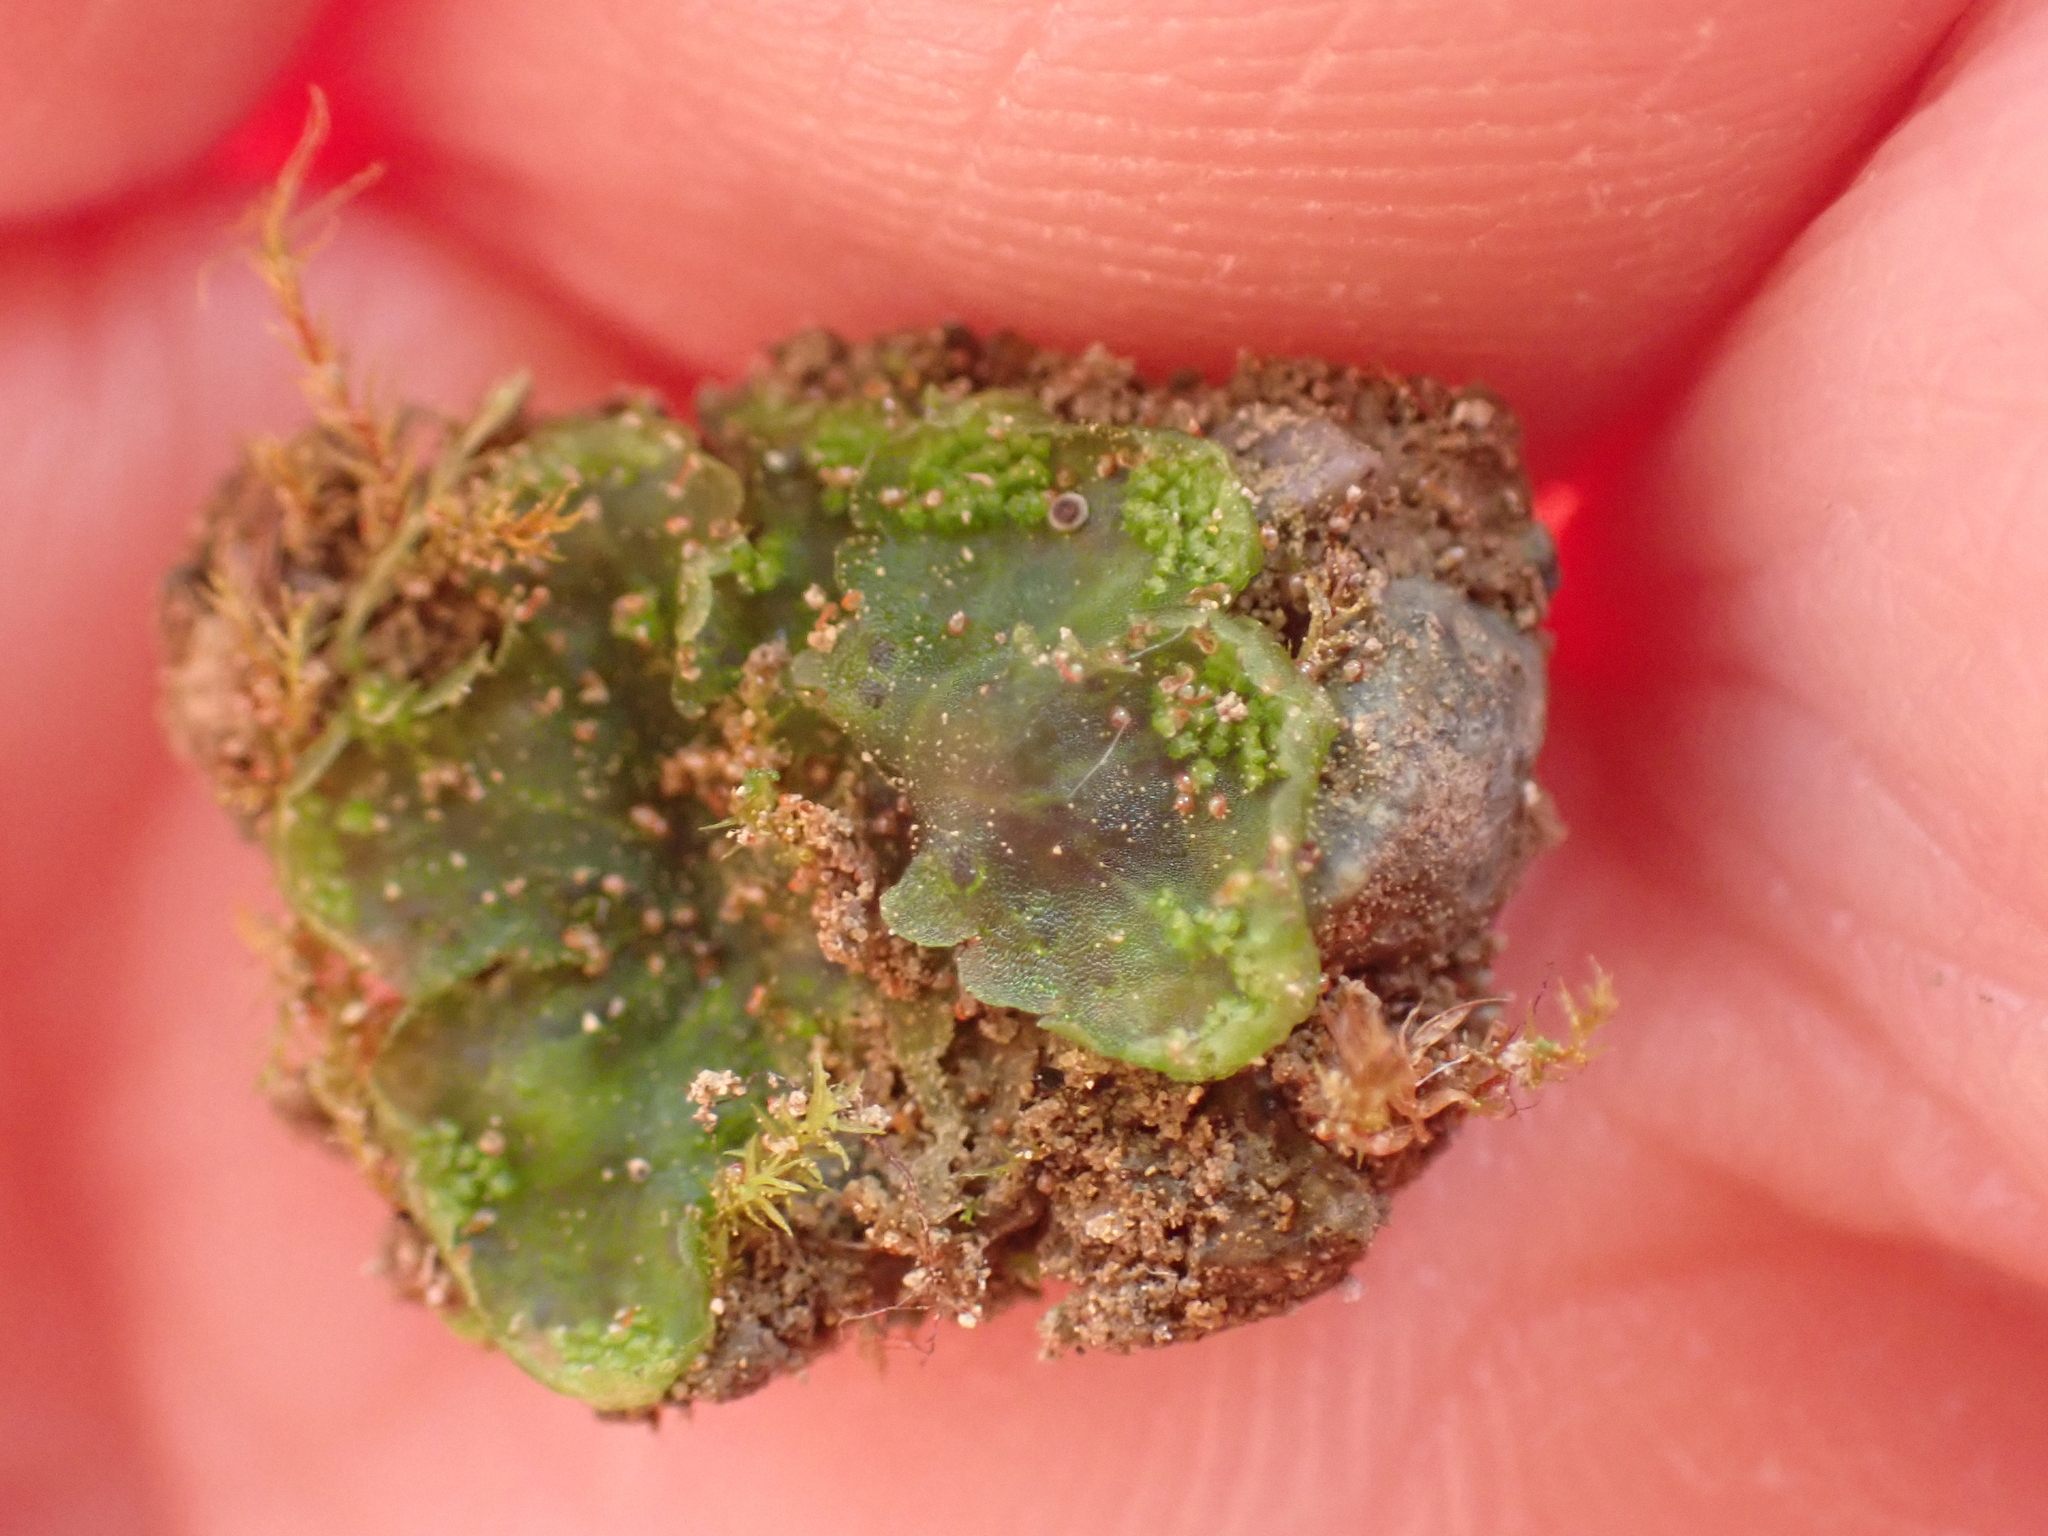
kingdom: Plantae
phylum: Marchantiophyta
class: Marchantiopsida
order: Blasiales
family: Blasiaceae
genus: Blasia
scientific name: Blasia pusilla
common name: Common kettlewort
